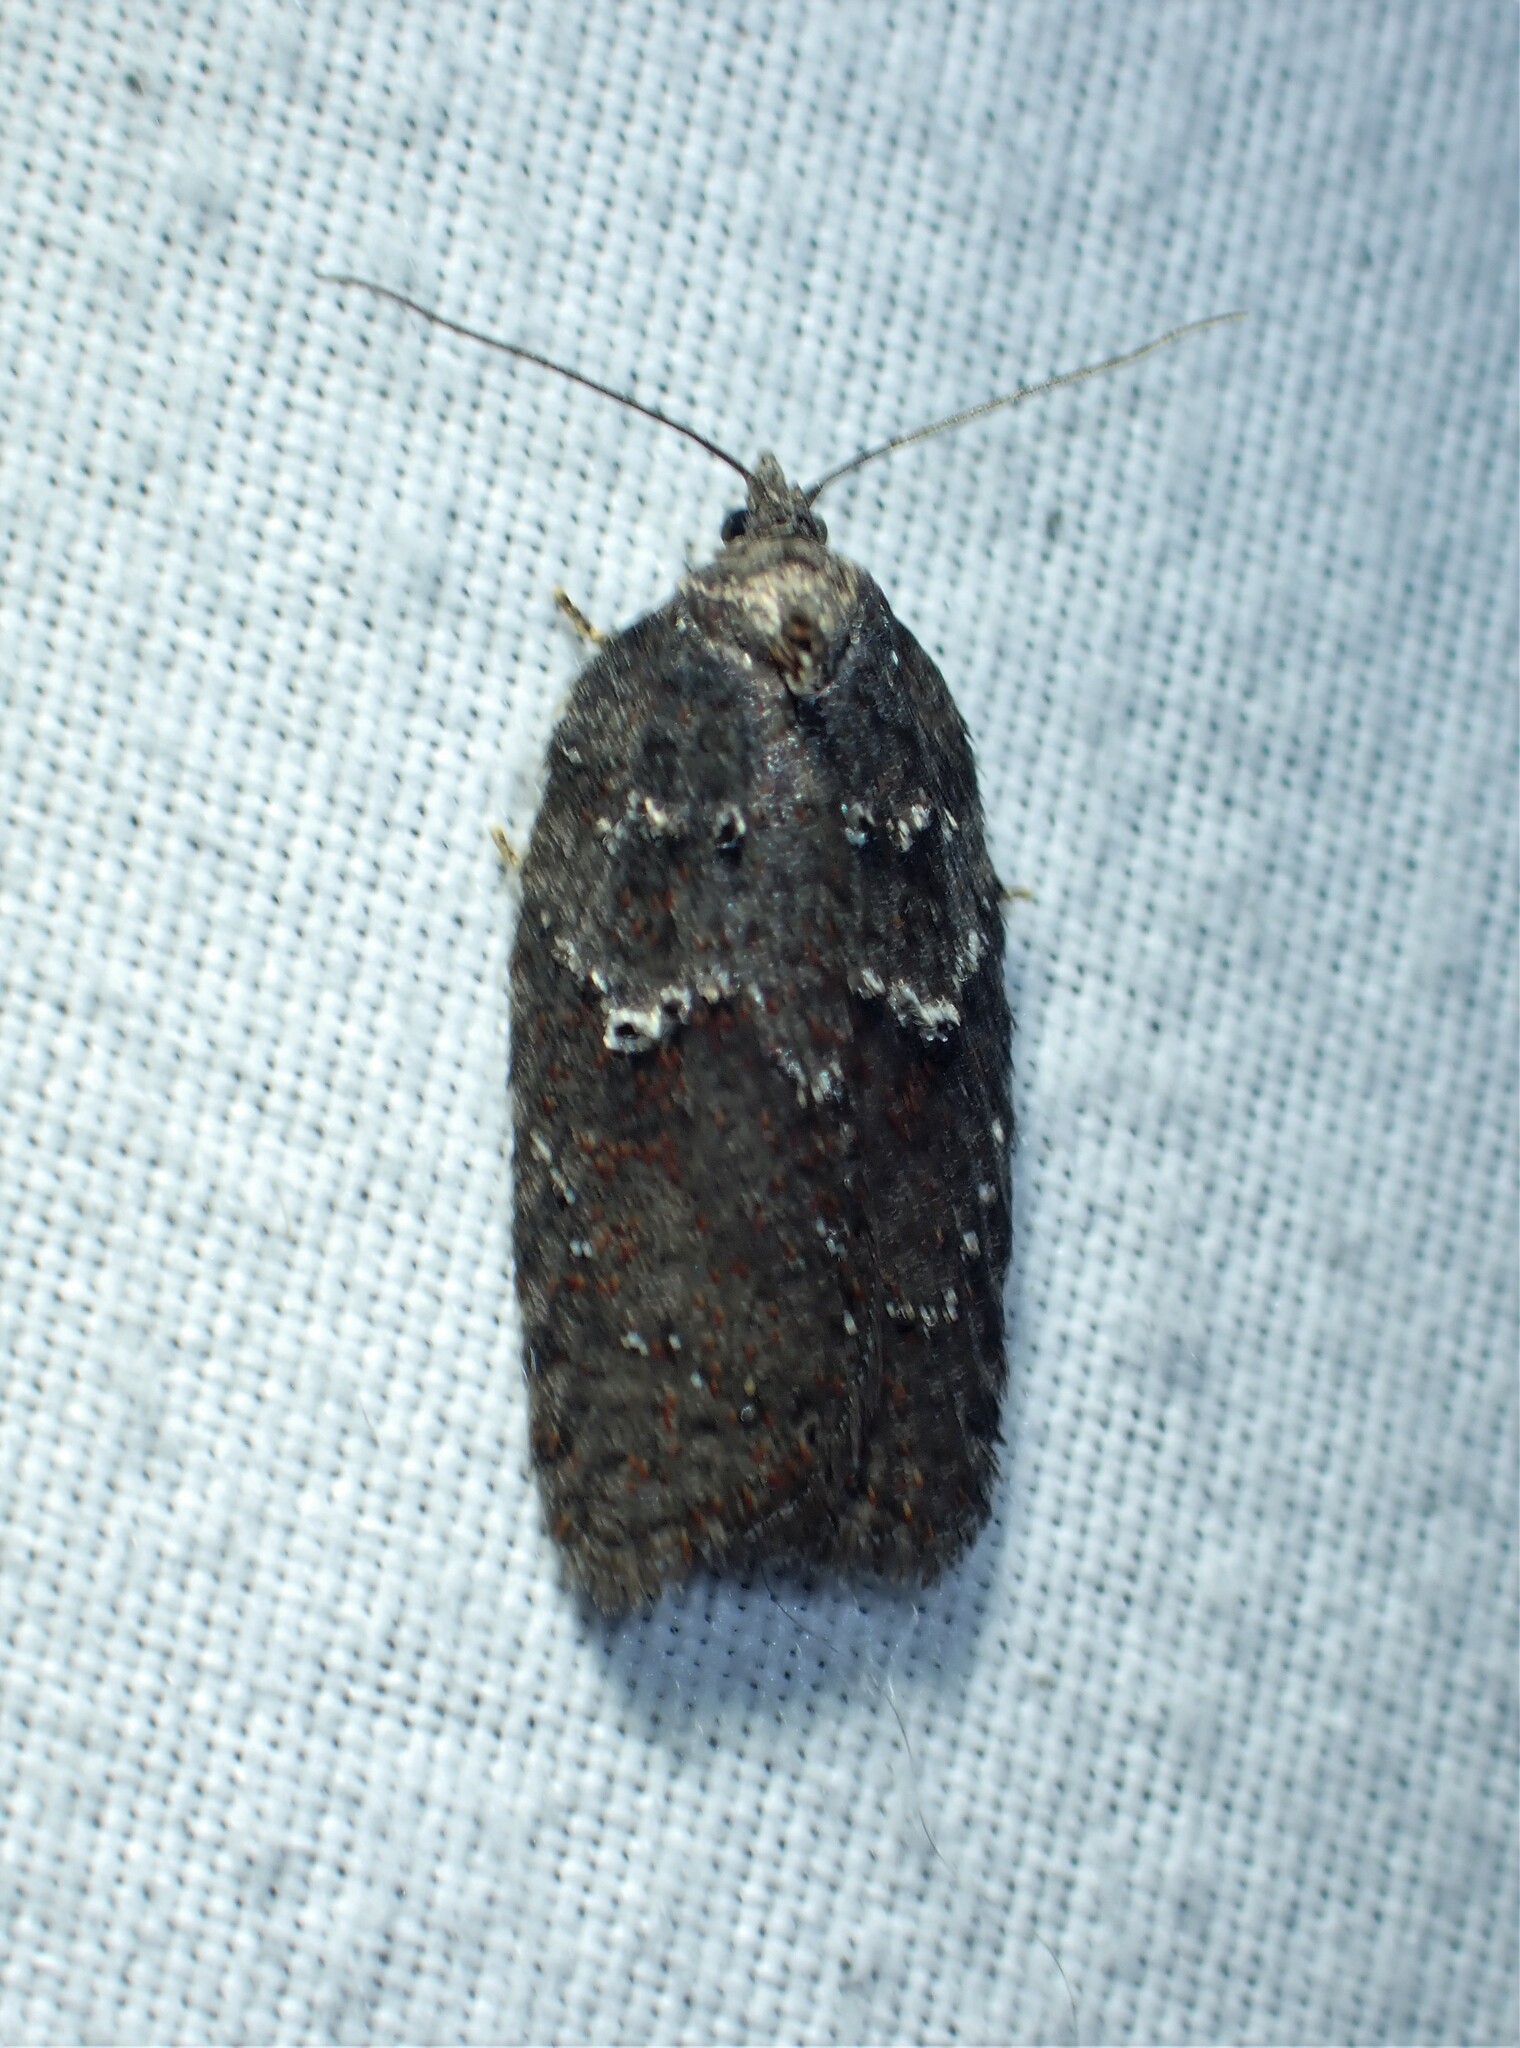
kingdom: Animalia
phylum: Arthropoda
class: Insecta
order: Lepidoptera
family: Tortricidae
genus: Acleris
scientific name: Acleris caliginosana
